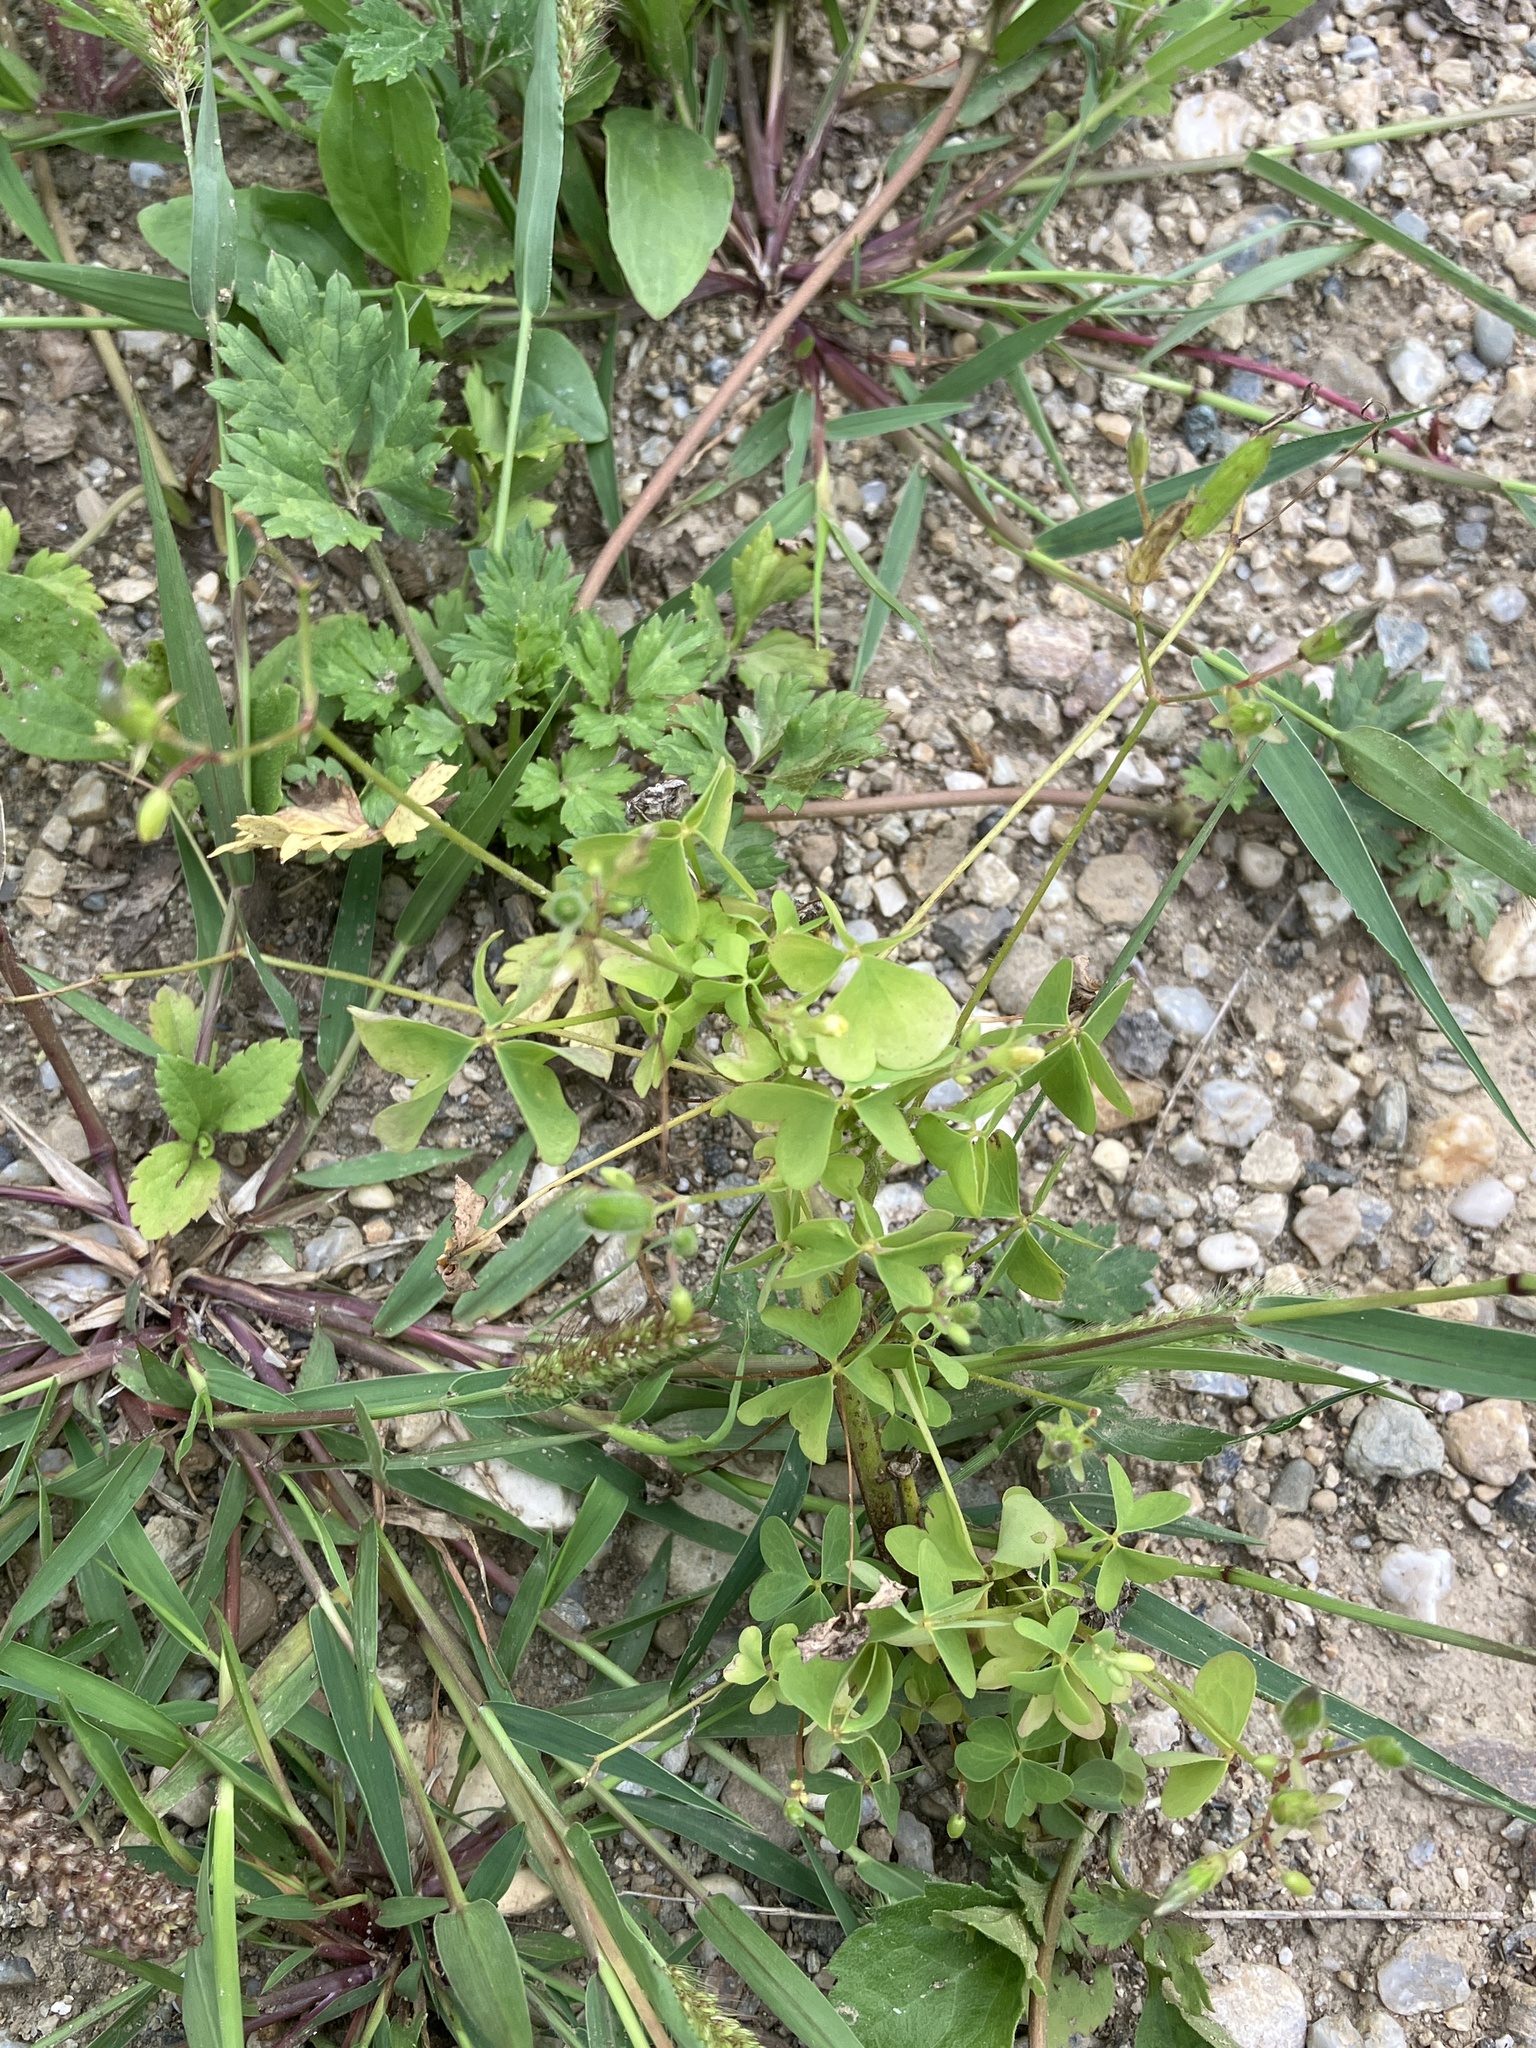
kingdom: Plantae
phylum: Tracheophyta
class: Magnoliopsida
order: Oxalidales
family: Oxalidaceae
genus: Oxalis
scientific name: Oxalis stricta
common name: Upright yellow-sorrel
